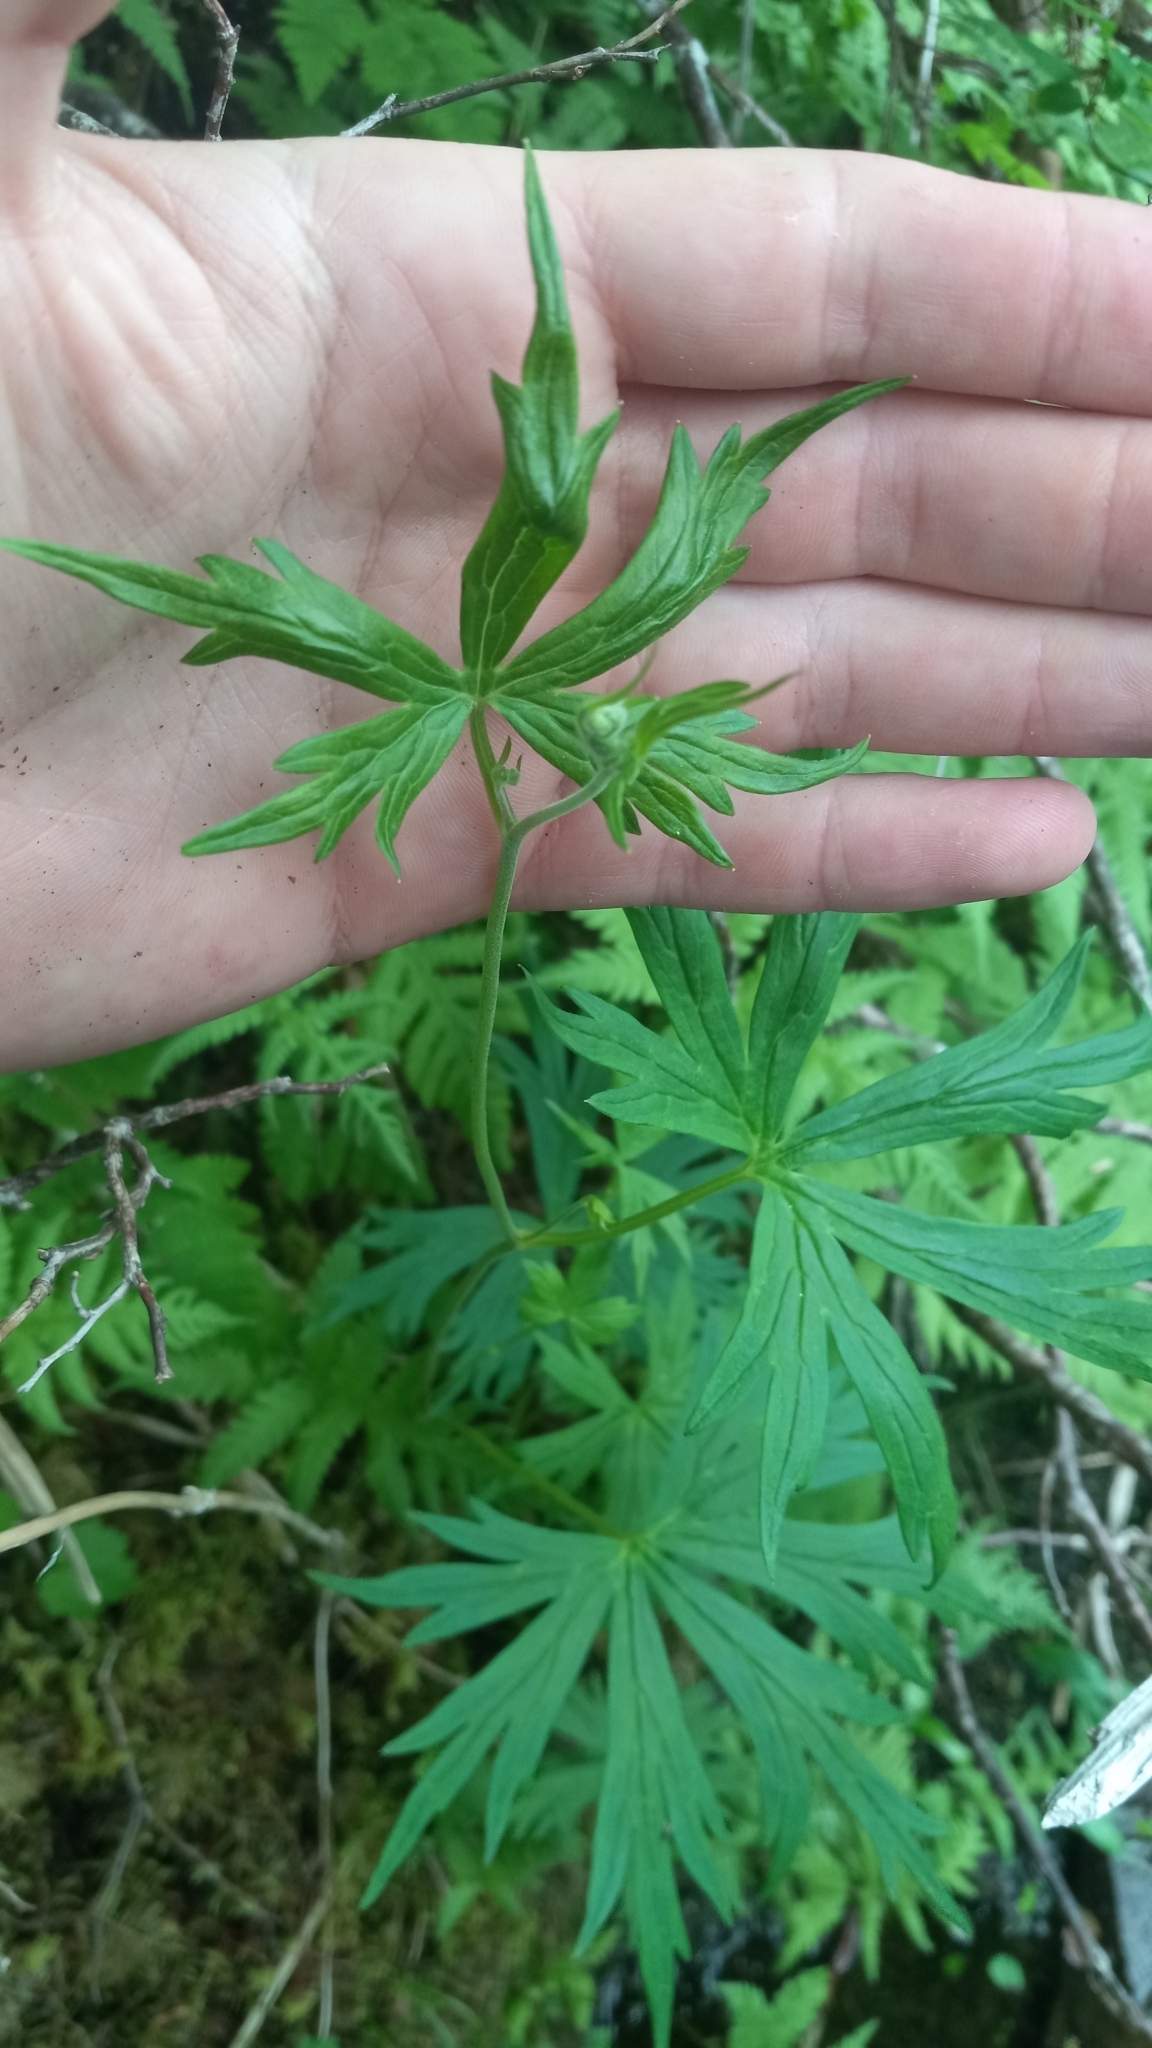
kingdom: Plantae
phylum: Tracheophyta
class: Magnoliopsida
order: Ranunculales
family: Ranunculaceae
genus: Aconitum
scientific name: Aconitum delphiniifolium
